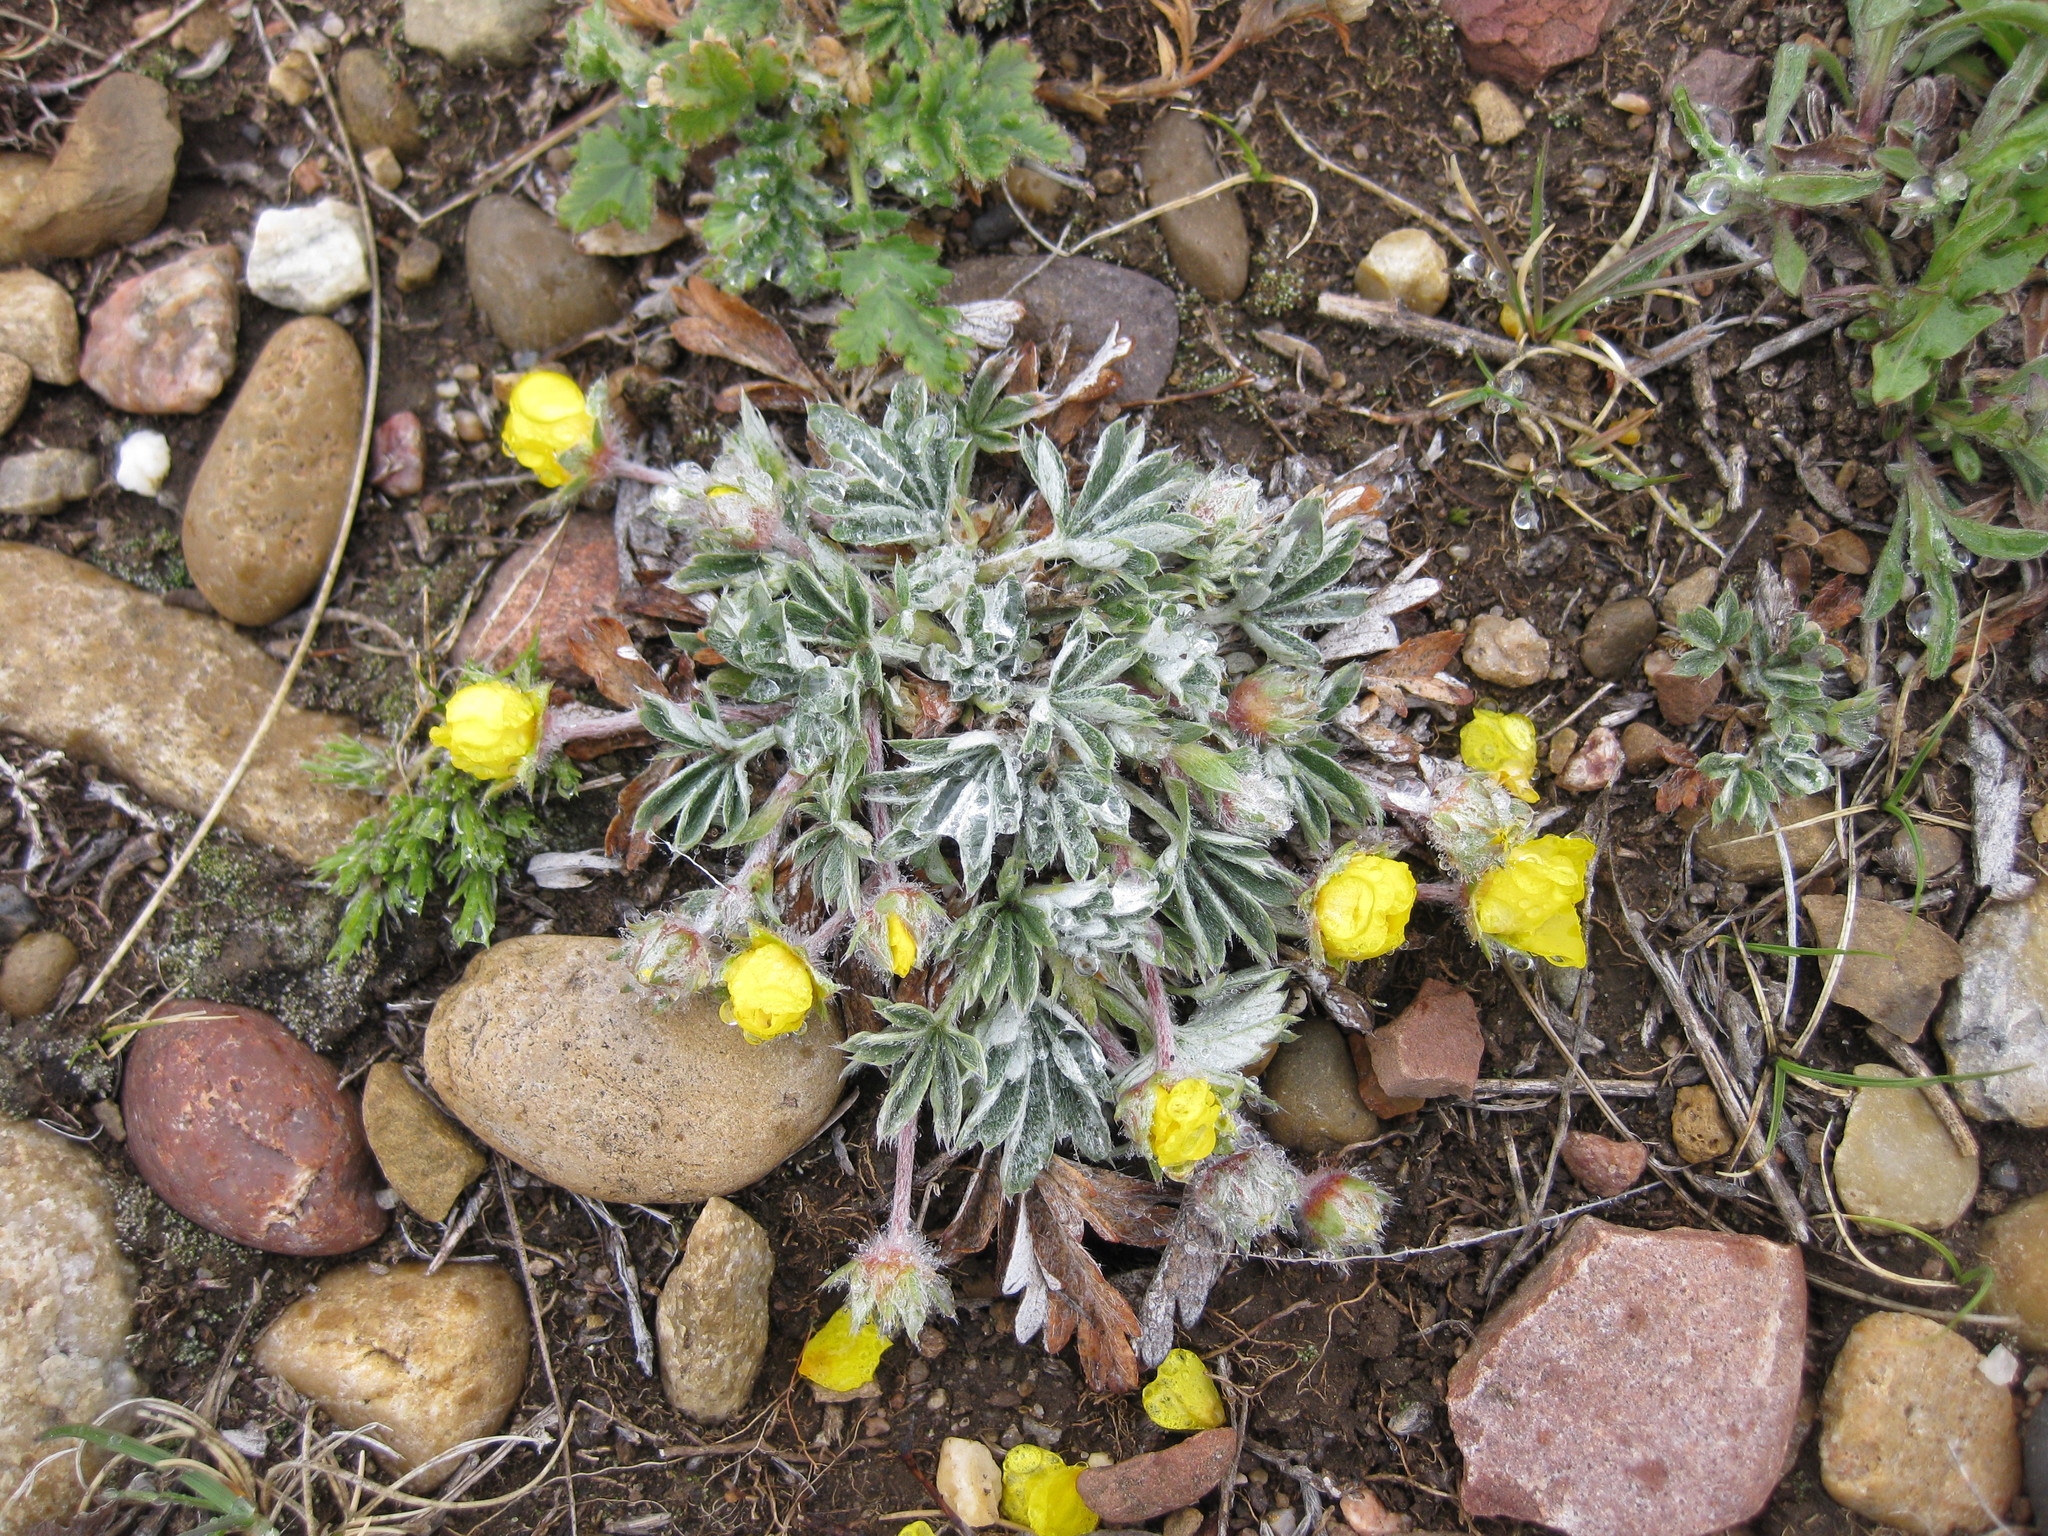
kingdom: Plantae
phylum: Tracheophyta
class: Magnoliopsida
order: Rosales
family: Rosaceae
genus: Potentilla
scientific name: Potentilla concinna
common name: Early cinquefoil
